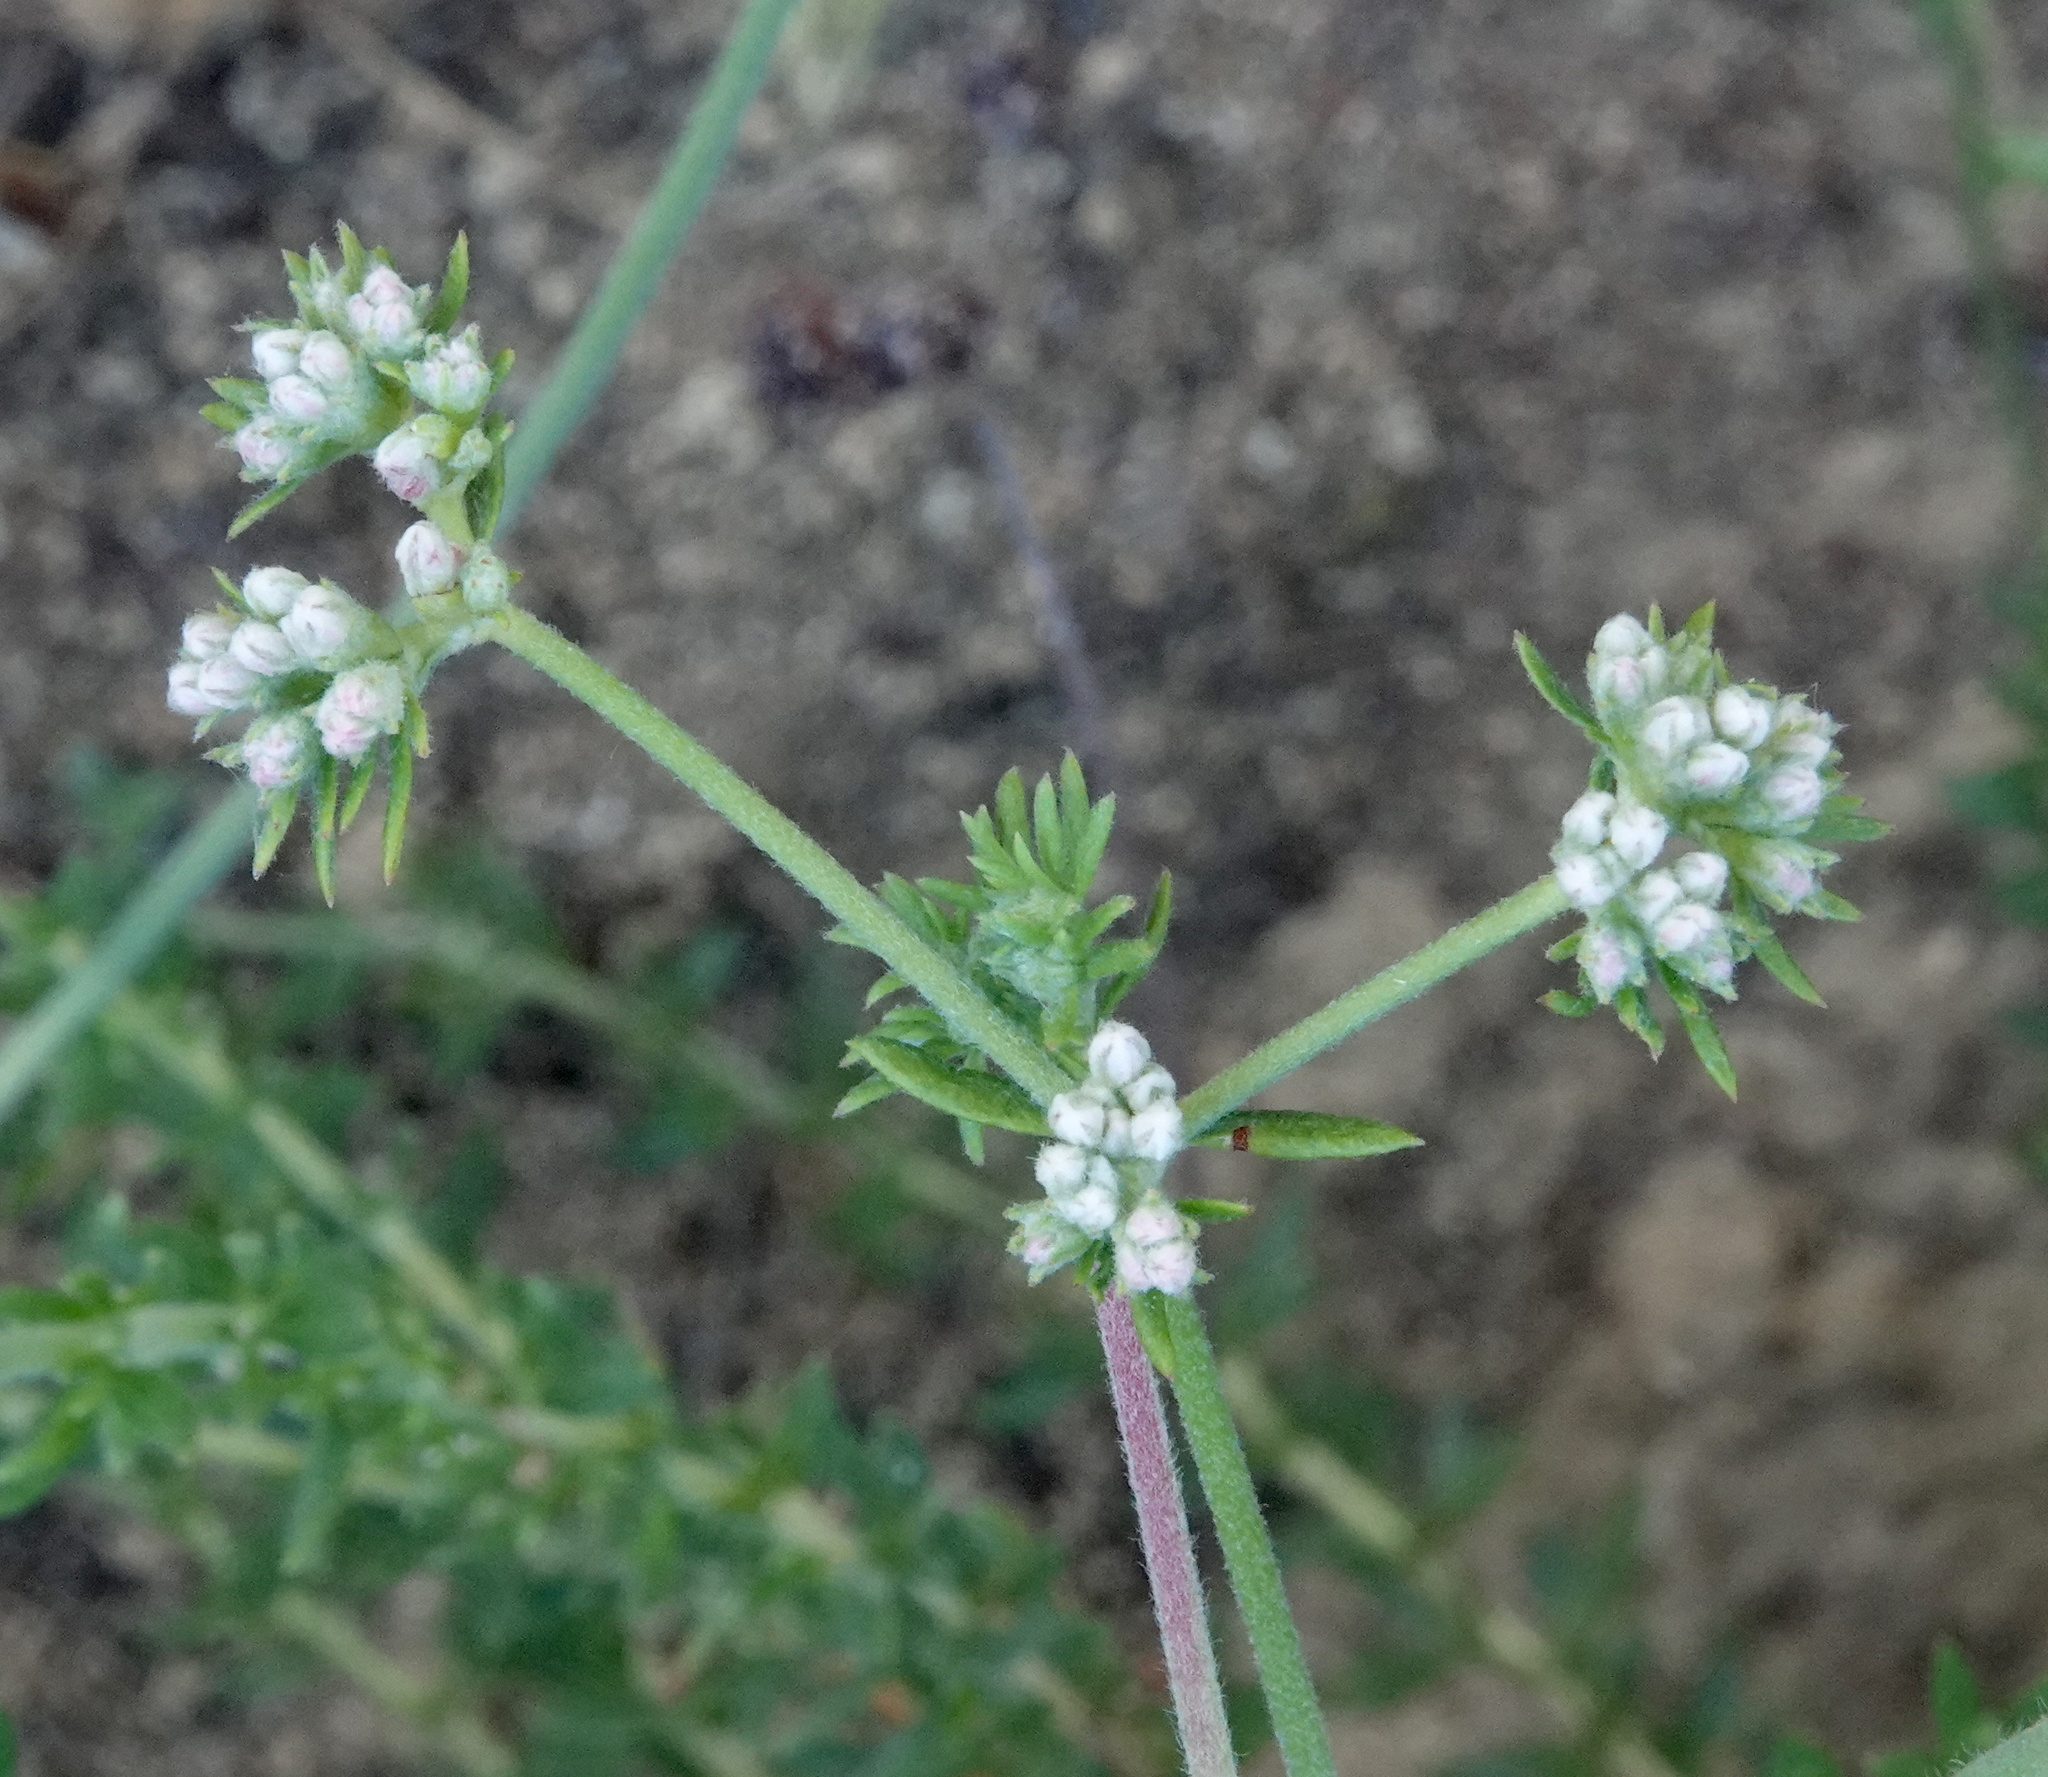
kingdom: Plantae
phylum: Tracheophyta
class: Magnoliopsida
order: Caryophyllales
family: Polygonaceae
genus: Eriogonum
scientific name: Eriogonum fasciculatum
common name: California wild buckwheat
